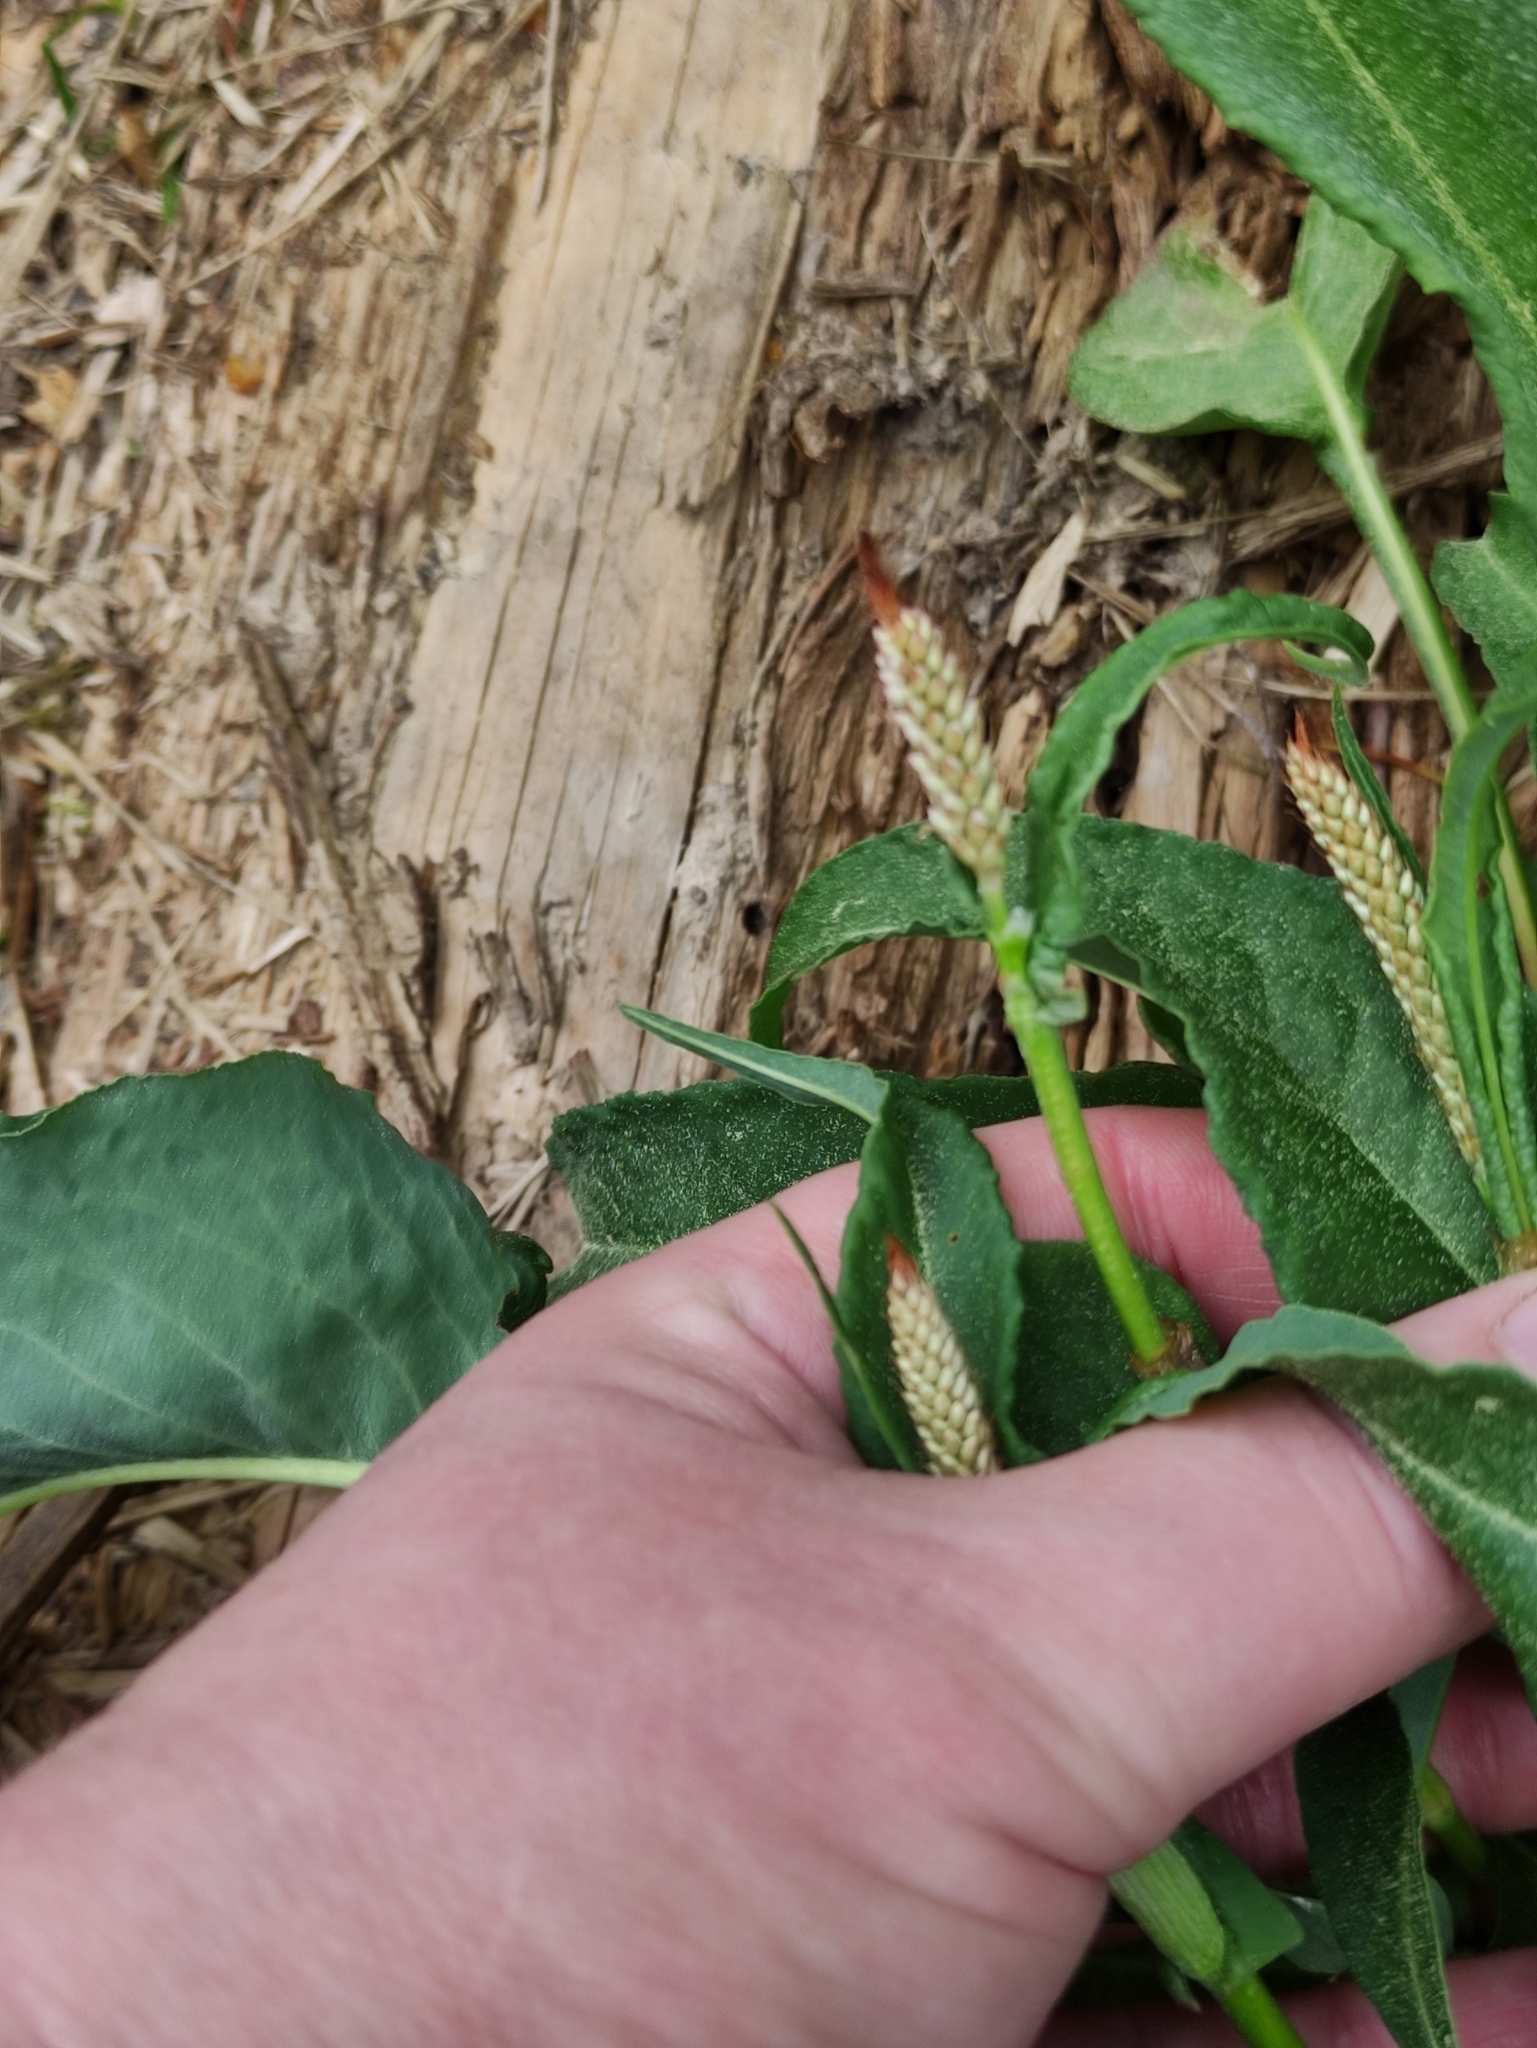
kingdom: Plantae
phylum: Tracheophyta
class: Magnoliopsida
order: Caryophyllales
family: Polygonaceae
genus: Bistorta
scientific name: Bistorta officinalis
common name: Common bistort
